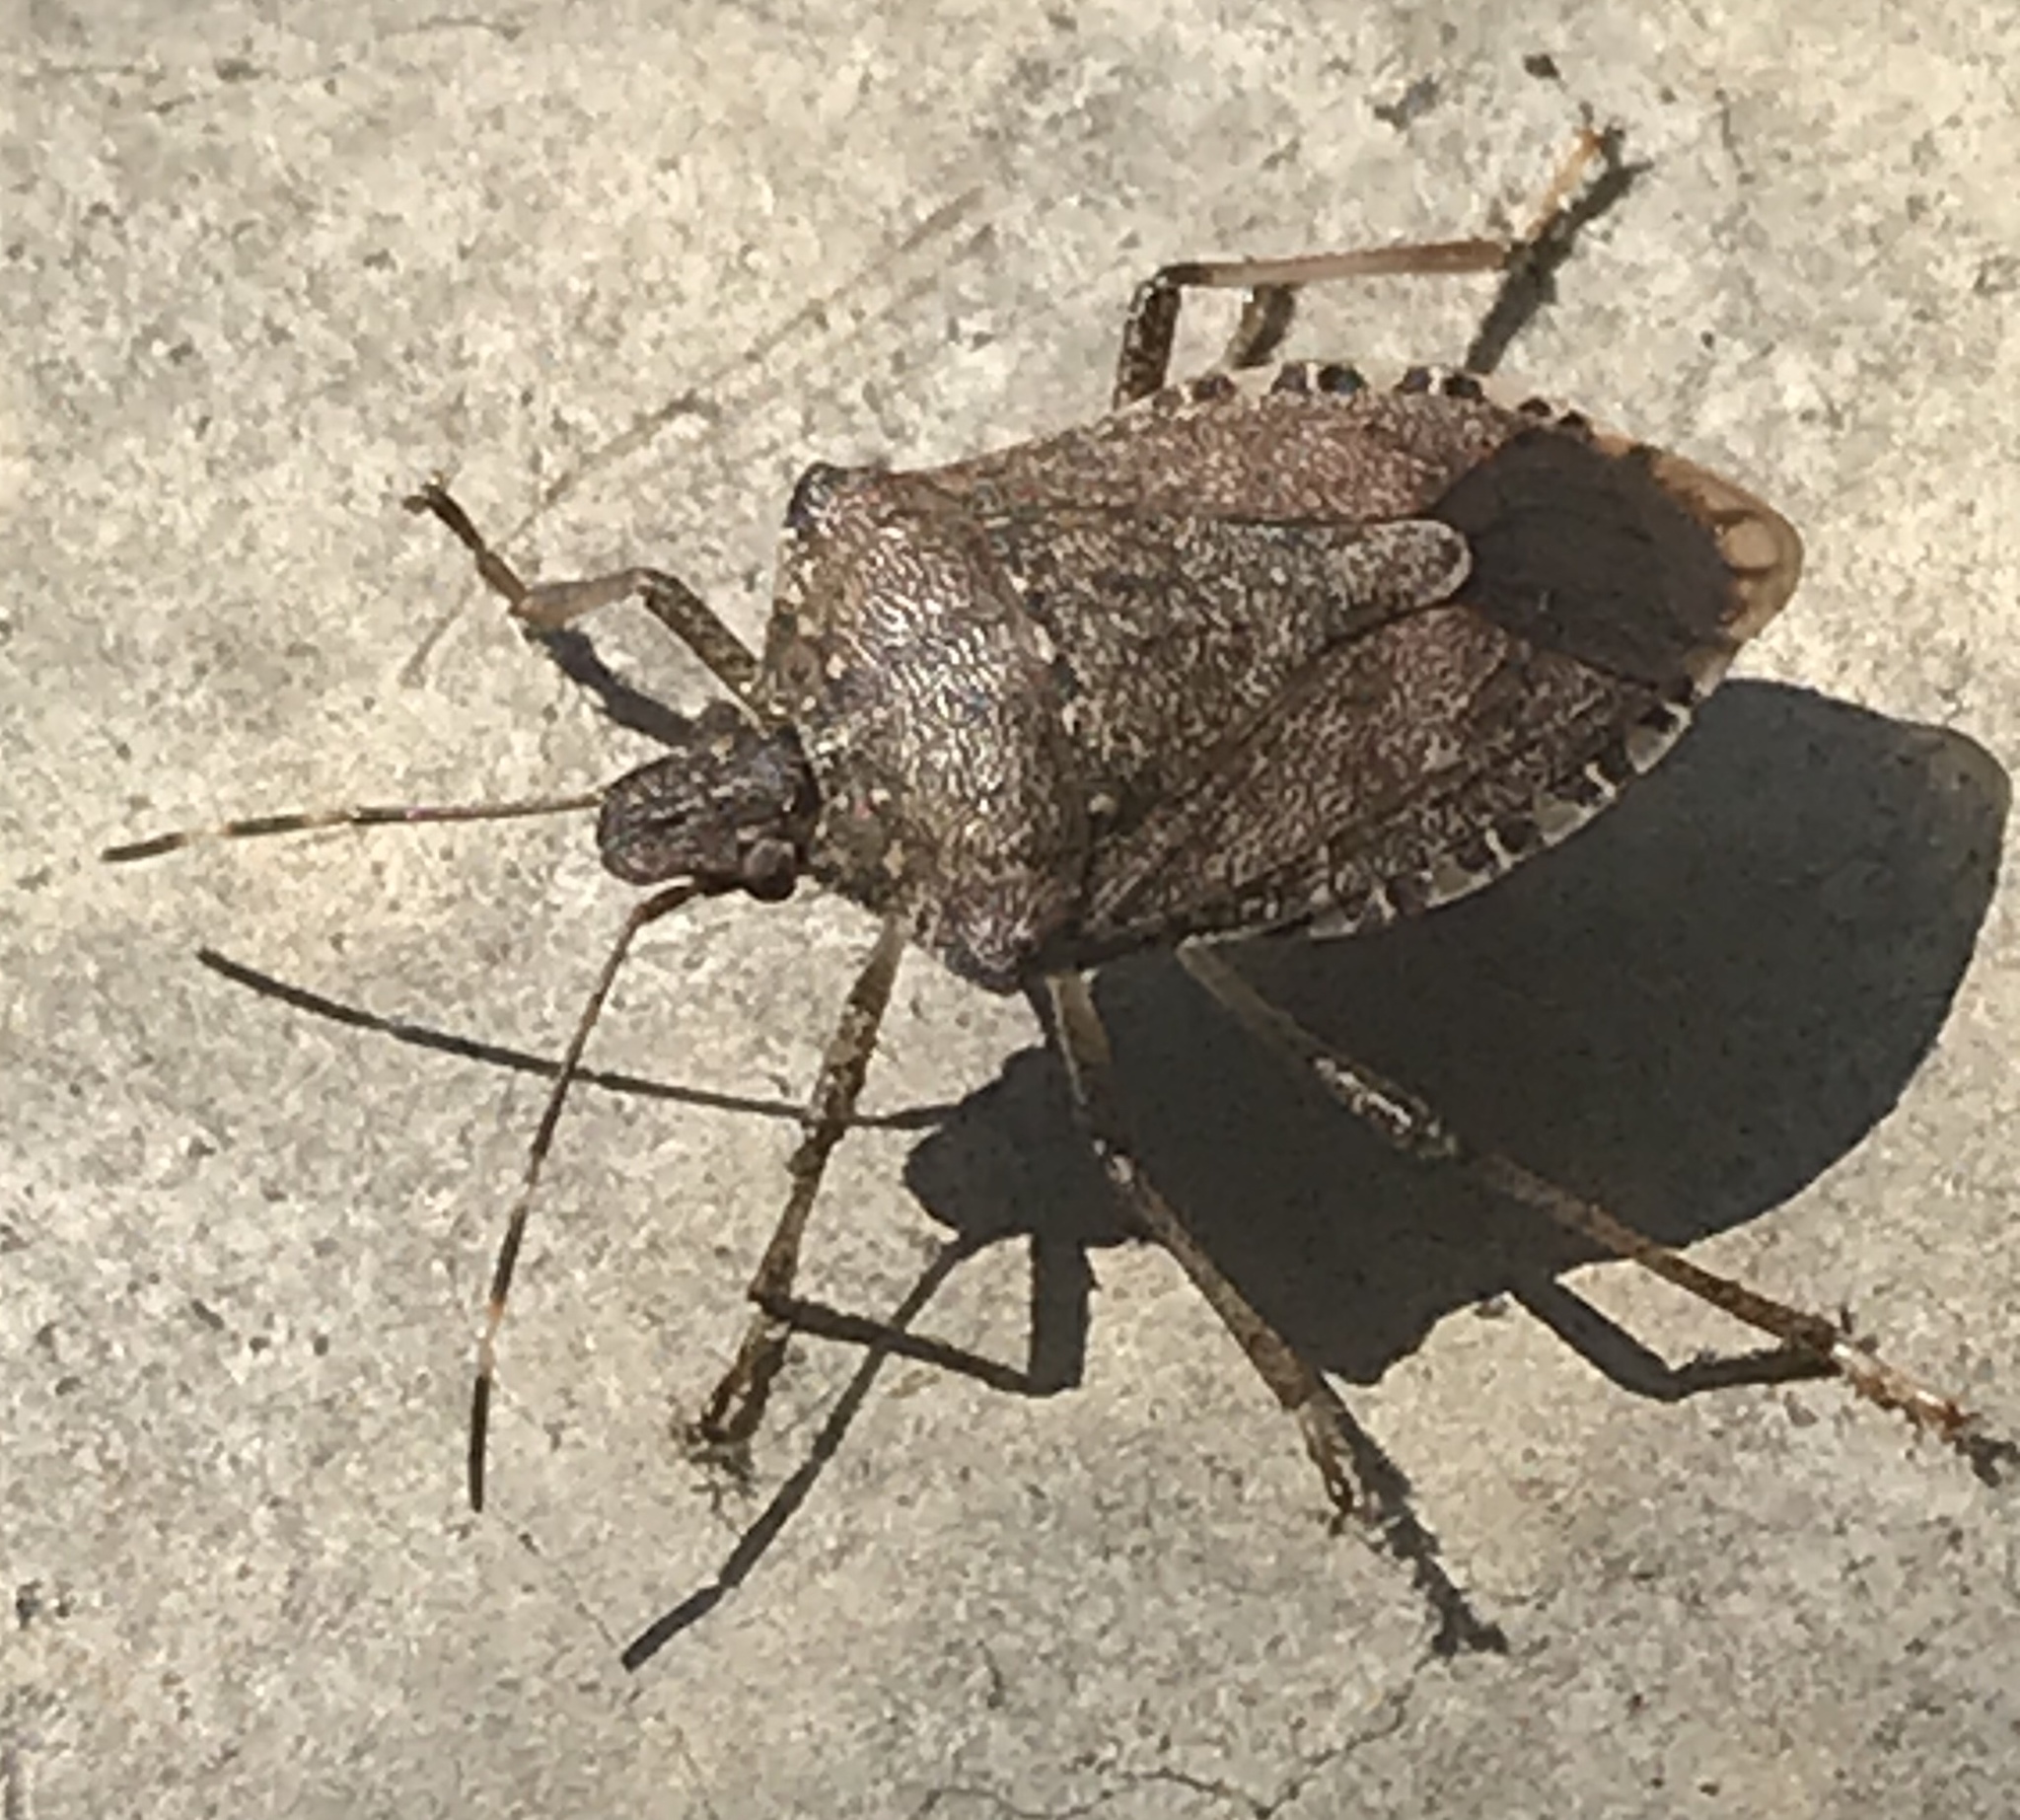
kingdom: Animalia
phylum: Arthropoda
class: Insecta
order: Hemiptera
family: Pentatomidae
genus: Halyomorpha
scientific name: Halyomorpha halys
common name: Brown marmorated stink bug
